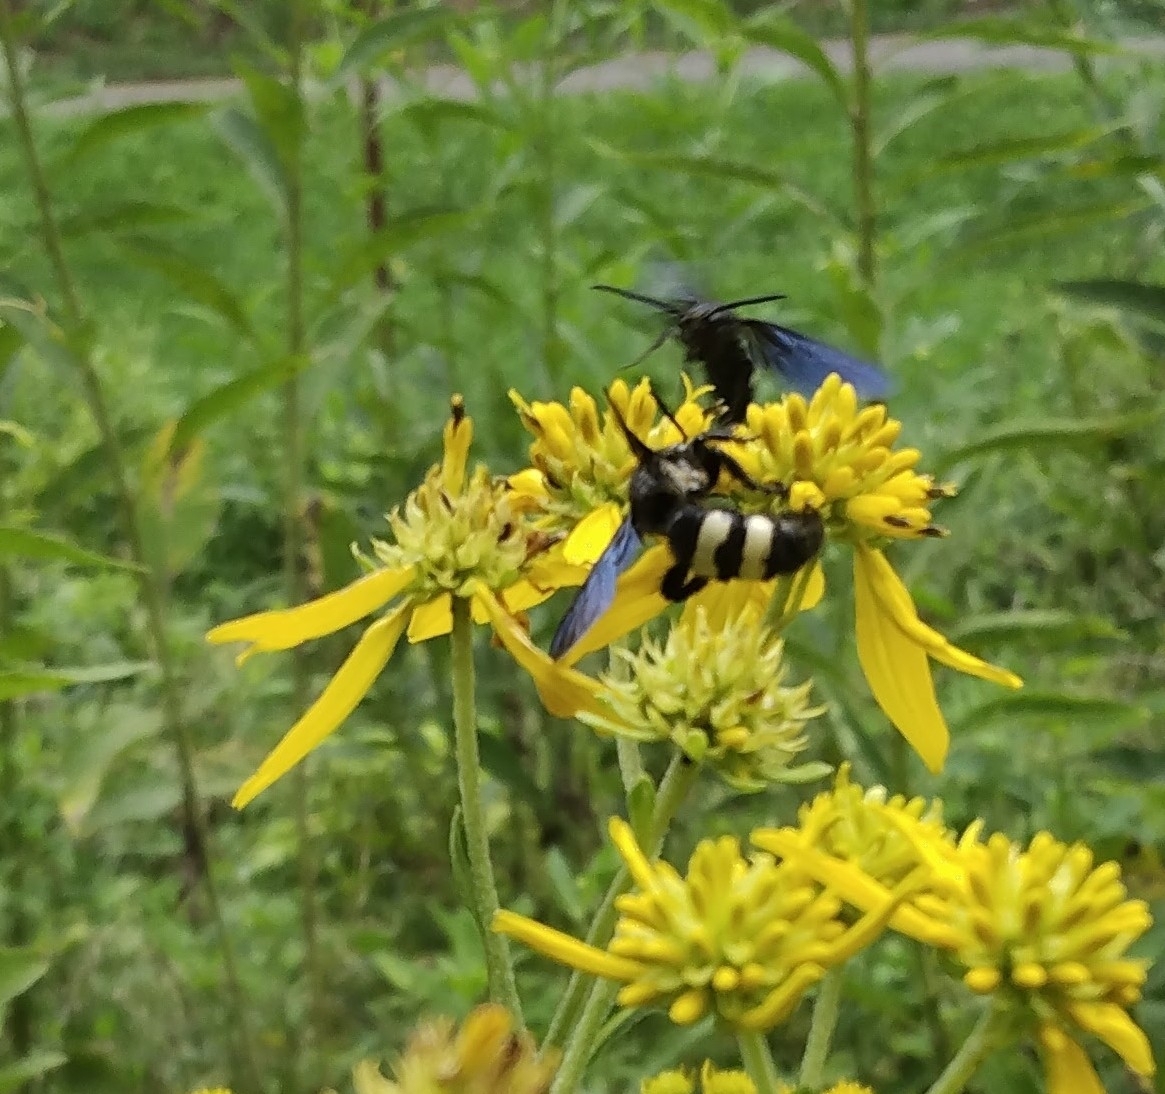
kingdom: Animalia
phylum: Arthropoda
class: Insecta
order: Hymenoptera
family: Scoliidae
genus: Scolia
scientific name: Scolia bicincta
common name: Double-banded scoliid wasp
